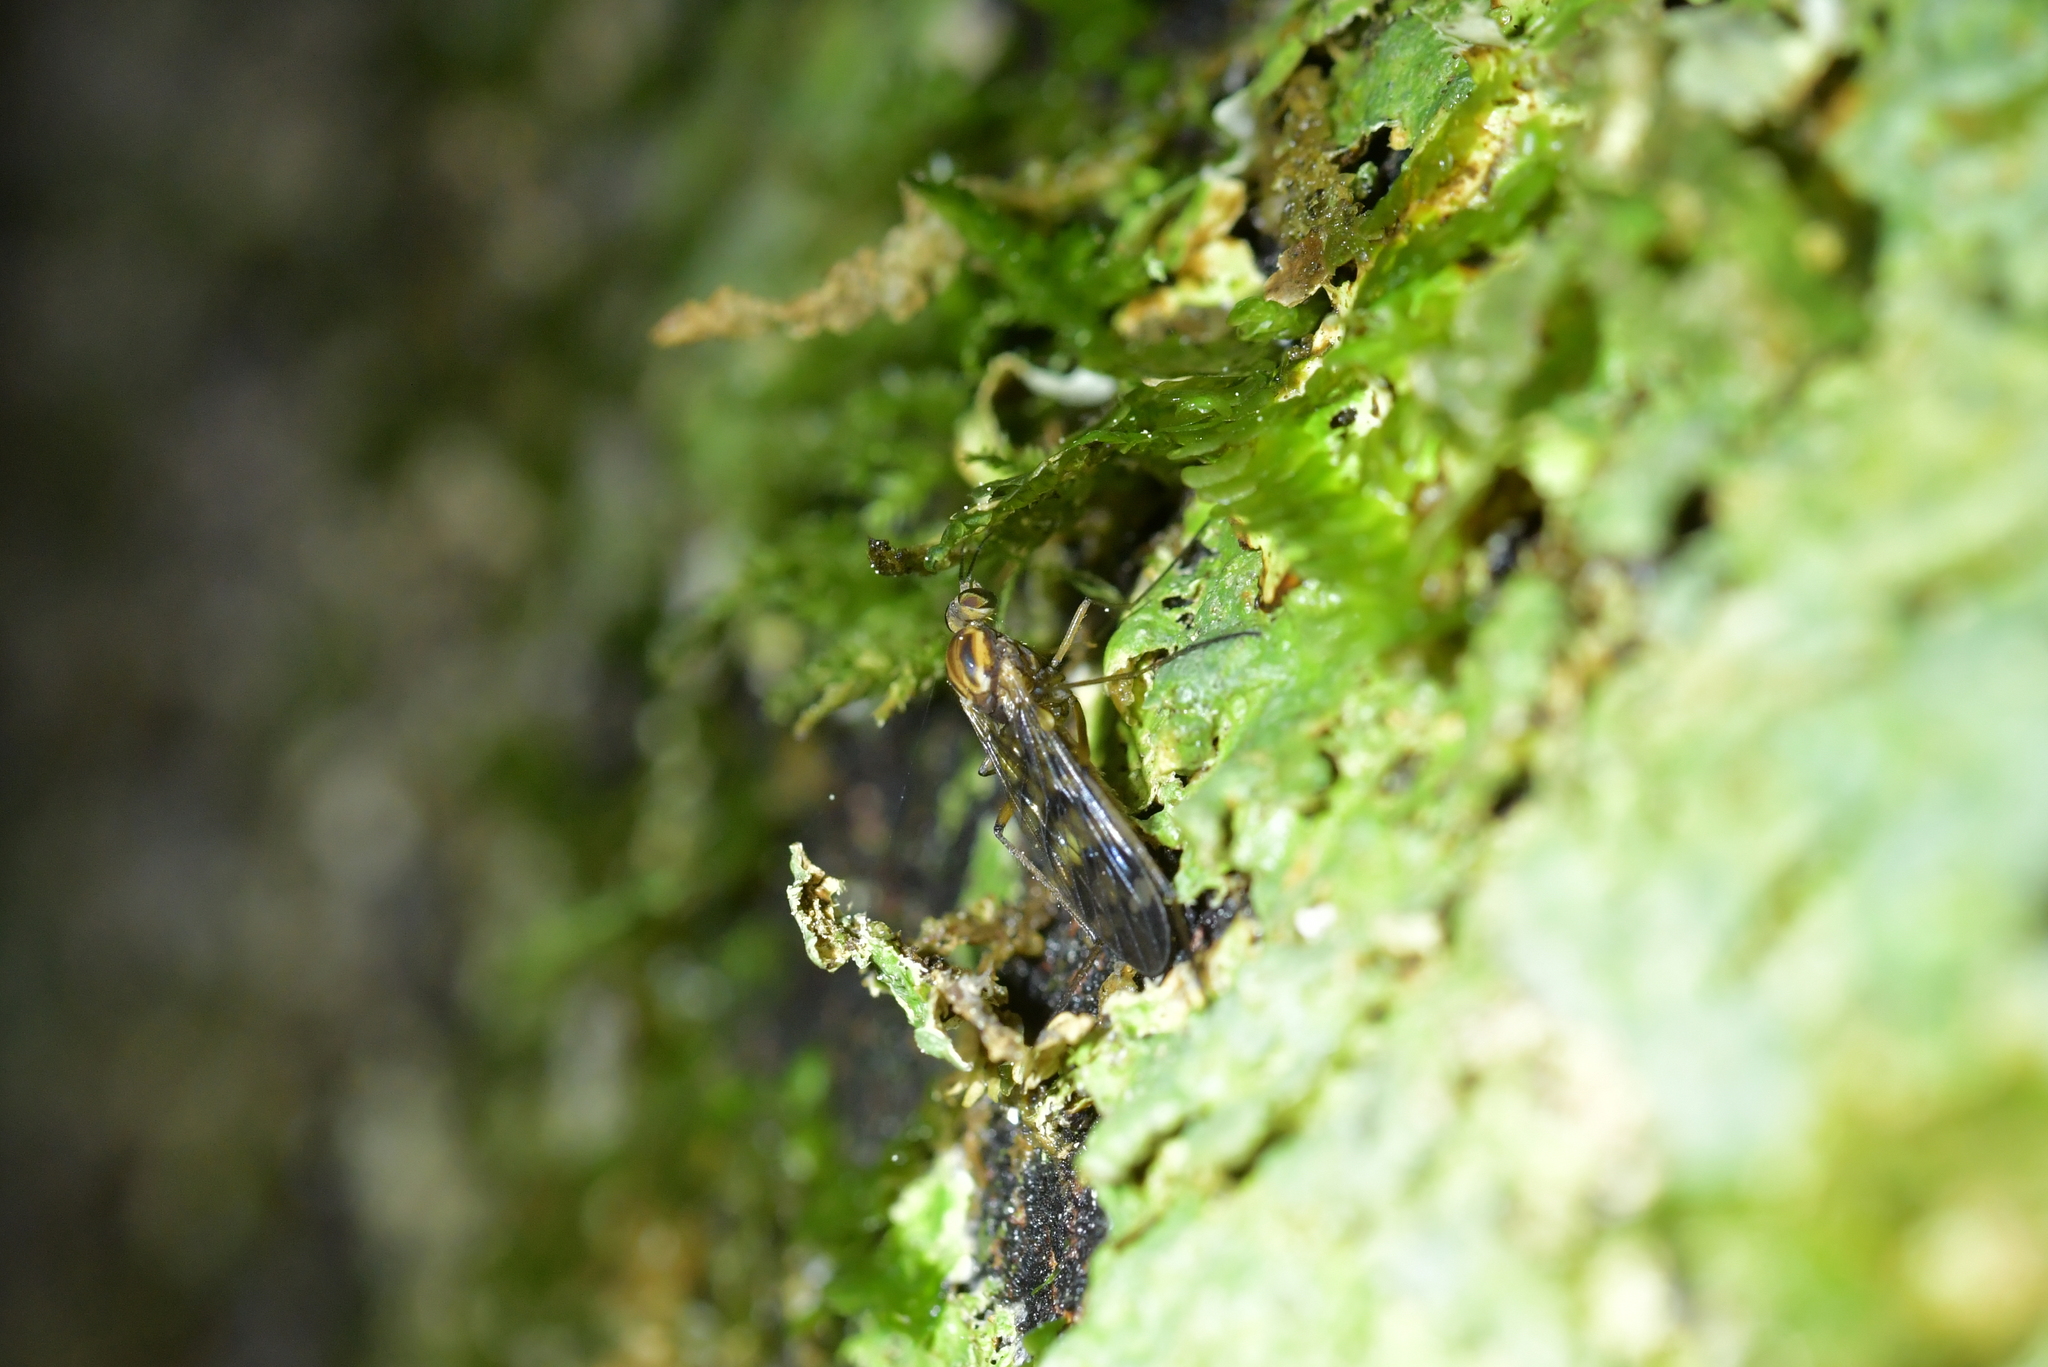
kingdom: Animalia
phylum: Arthropoda
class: Insecta
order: Diptera
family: Anisopodidae
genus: Sylvicola
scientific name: Sylvicola undulatus
